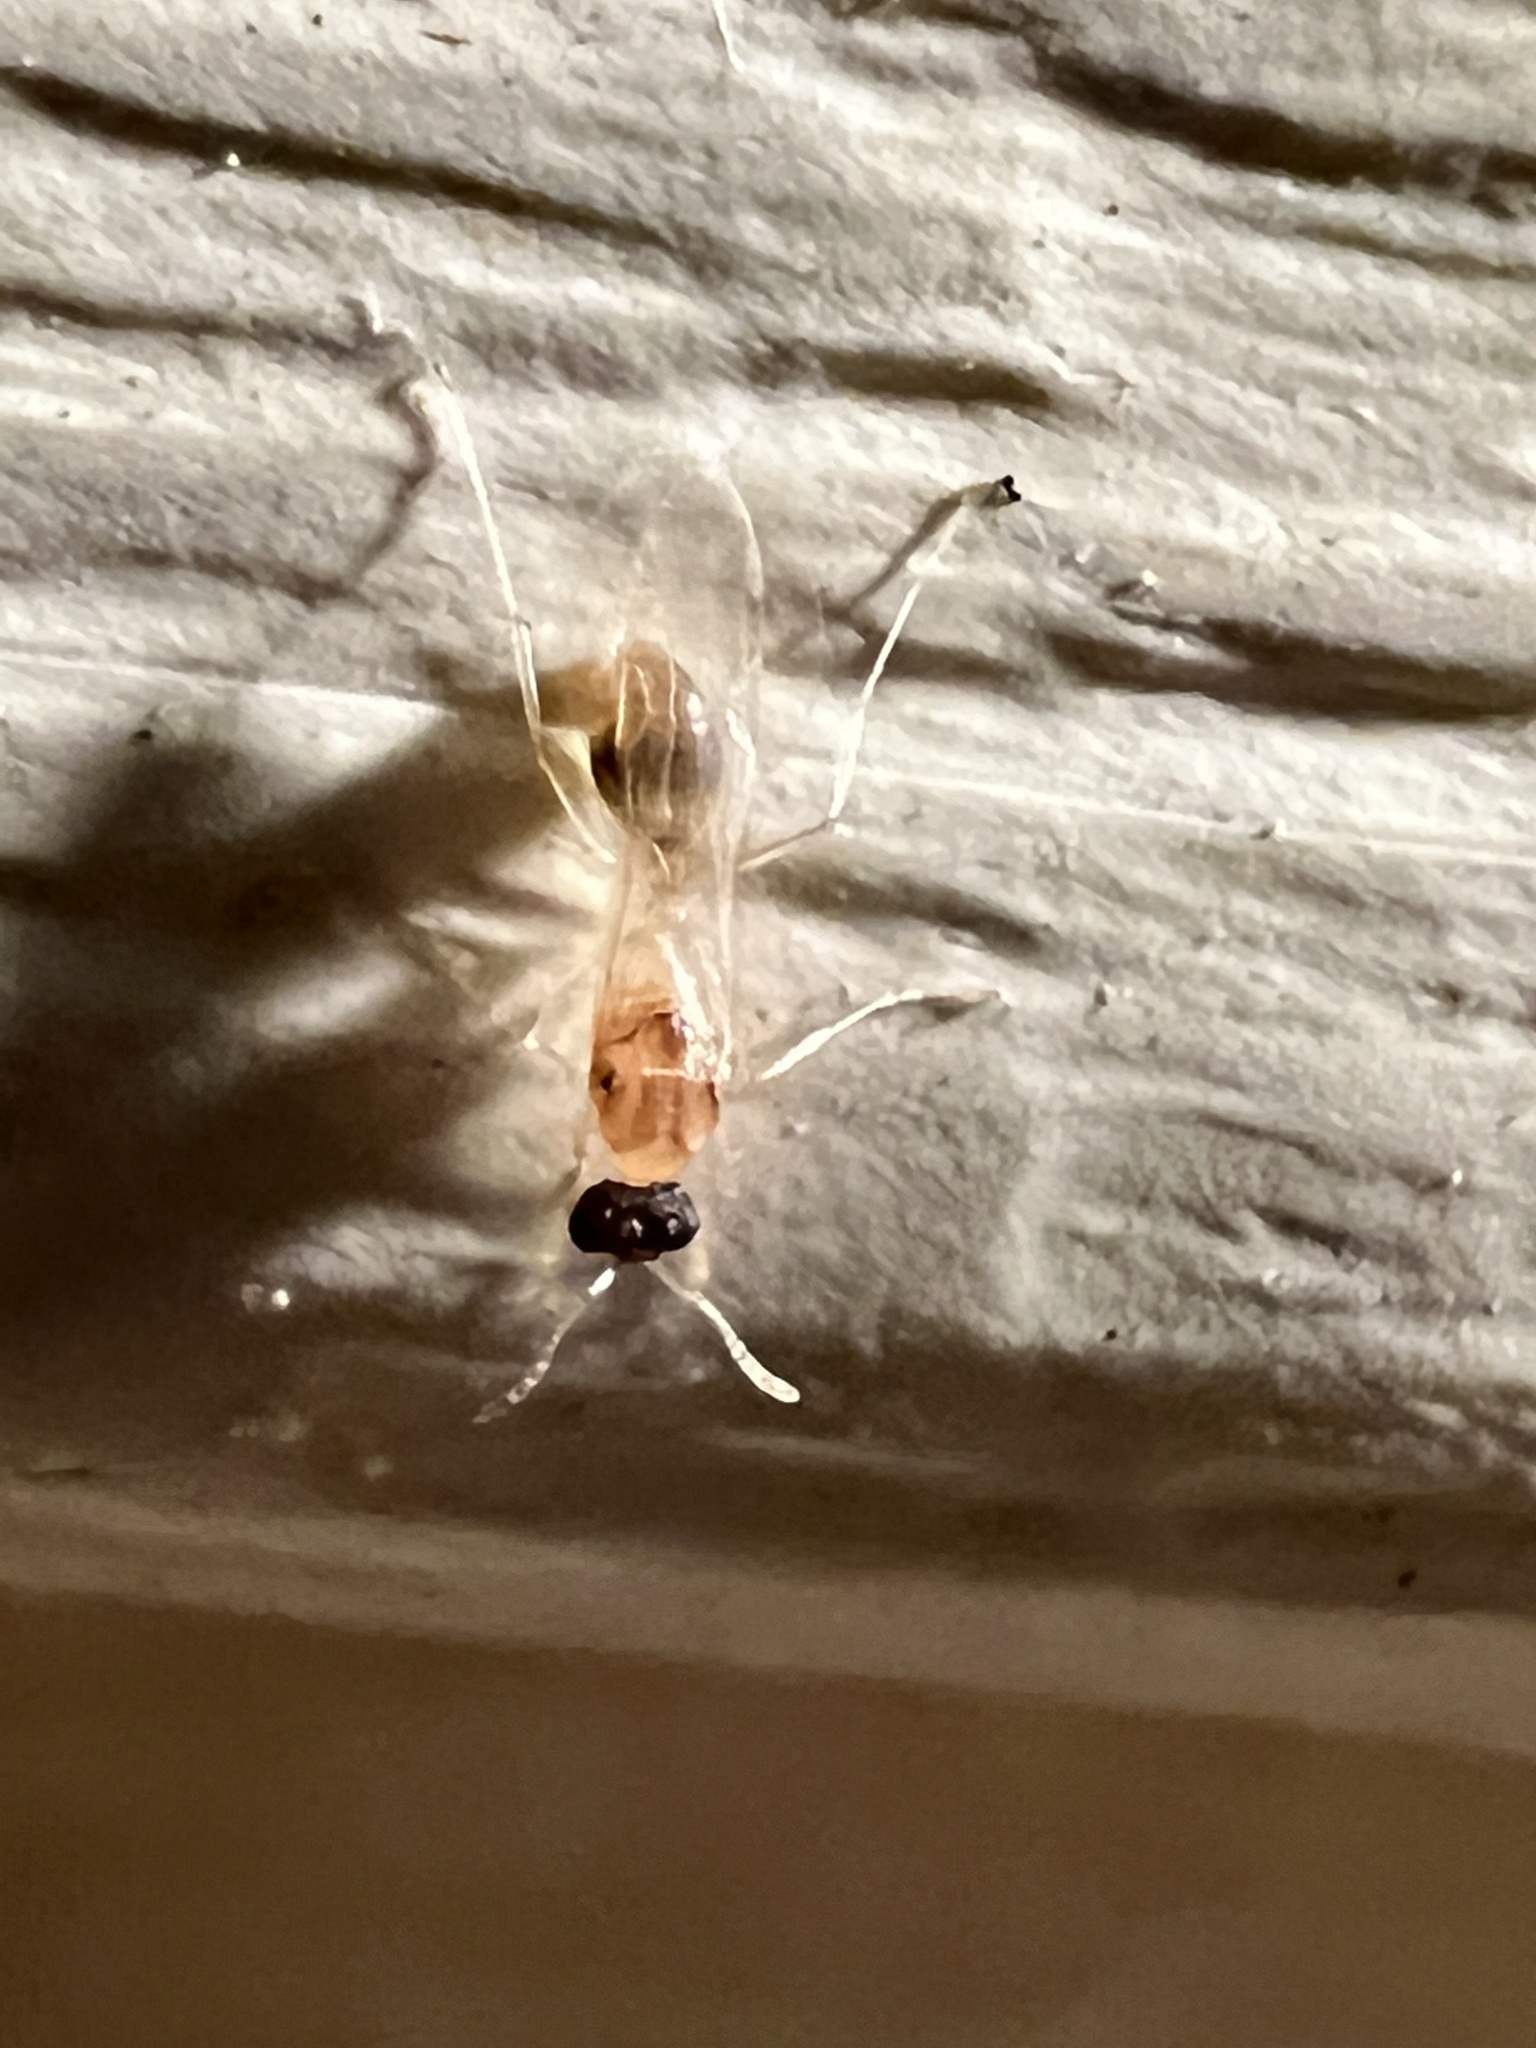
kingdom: Animalia
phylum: Arthropoda
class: Insecta
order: Hymenoptera
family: Formicidae
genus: Temnothorax
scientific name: Temnothorax curvispinosus
